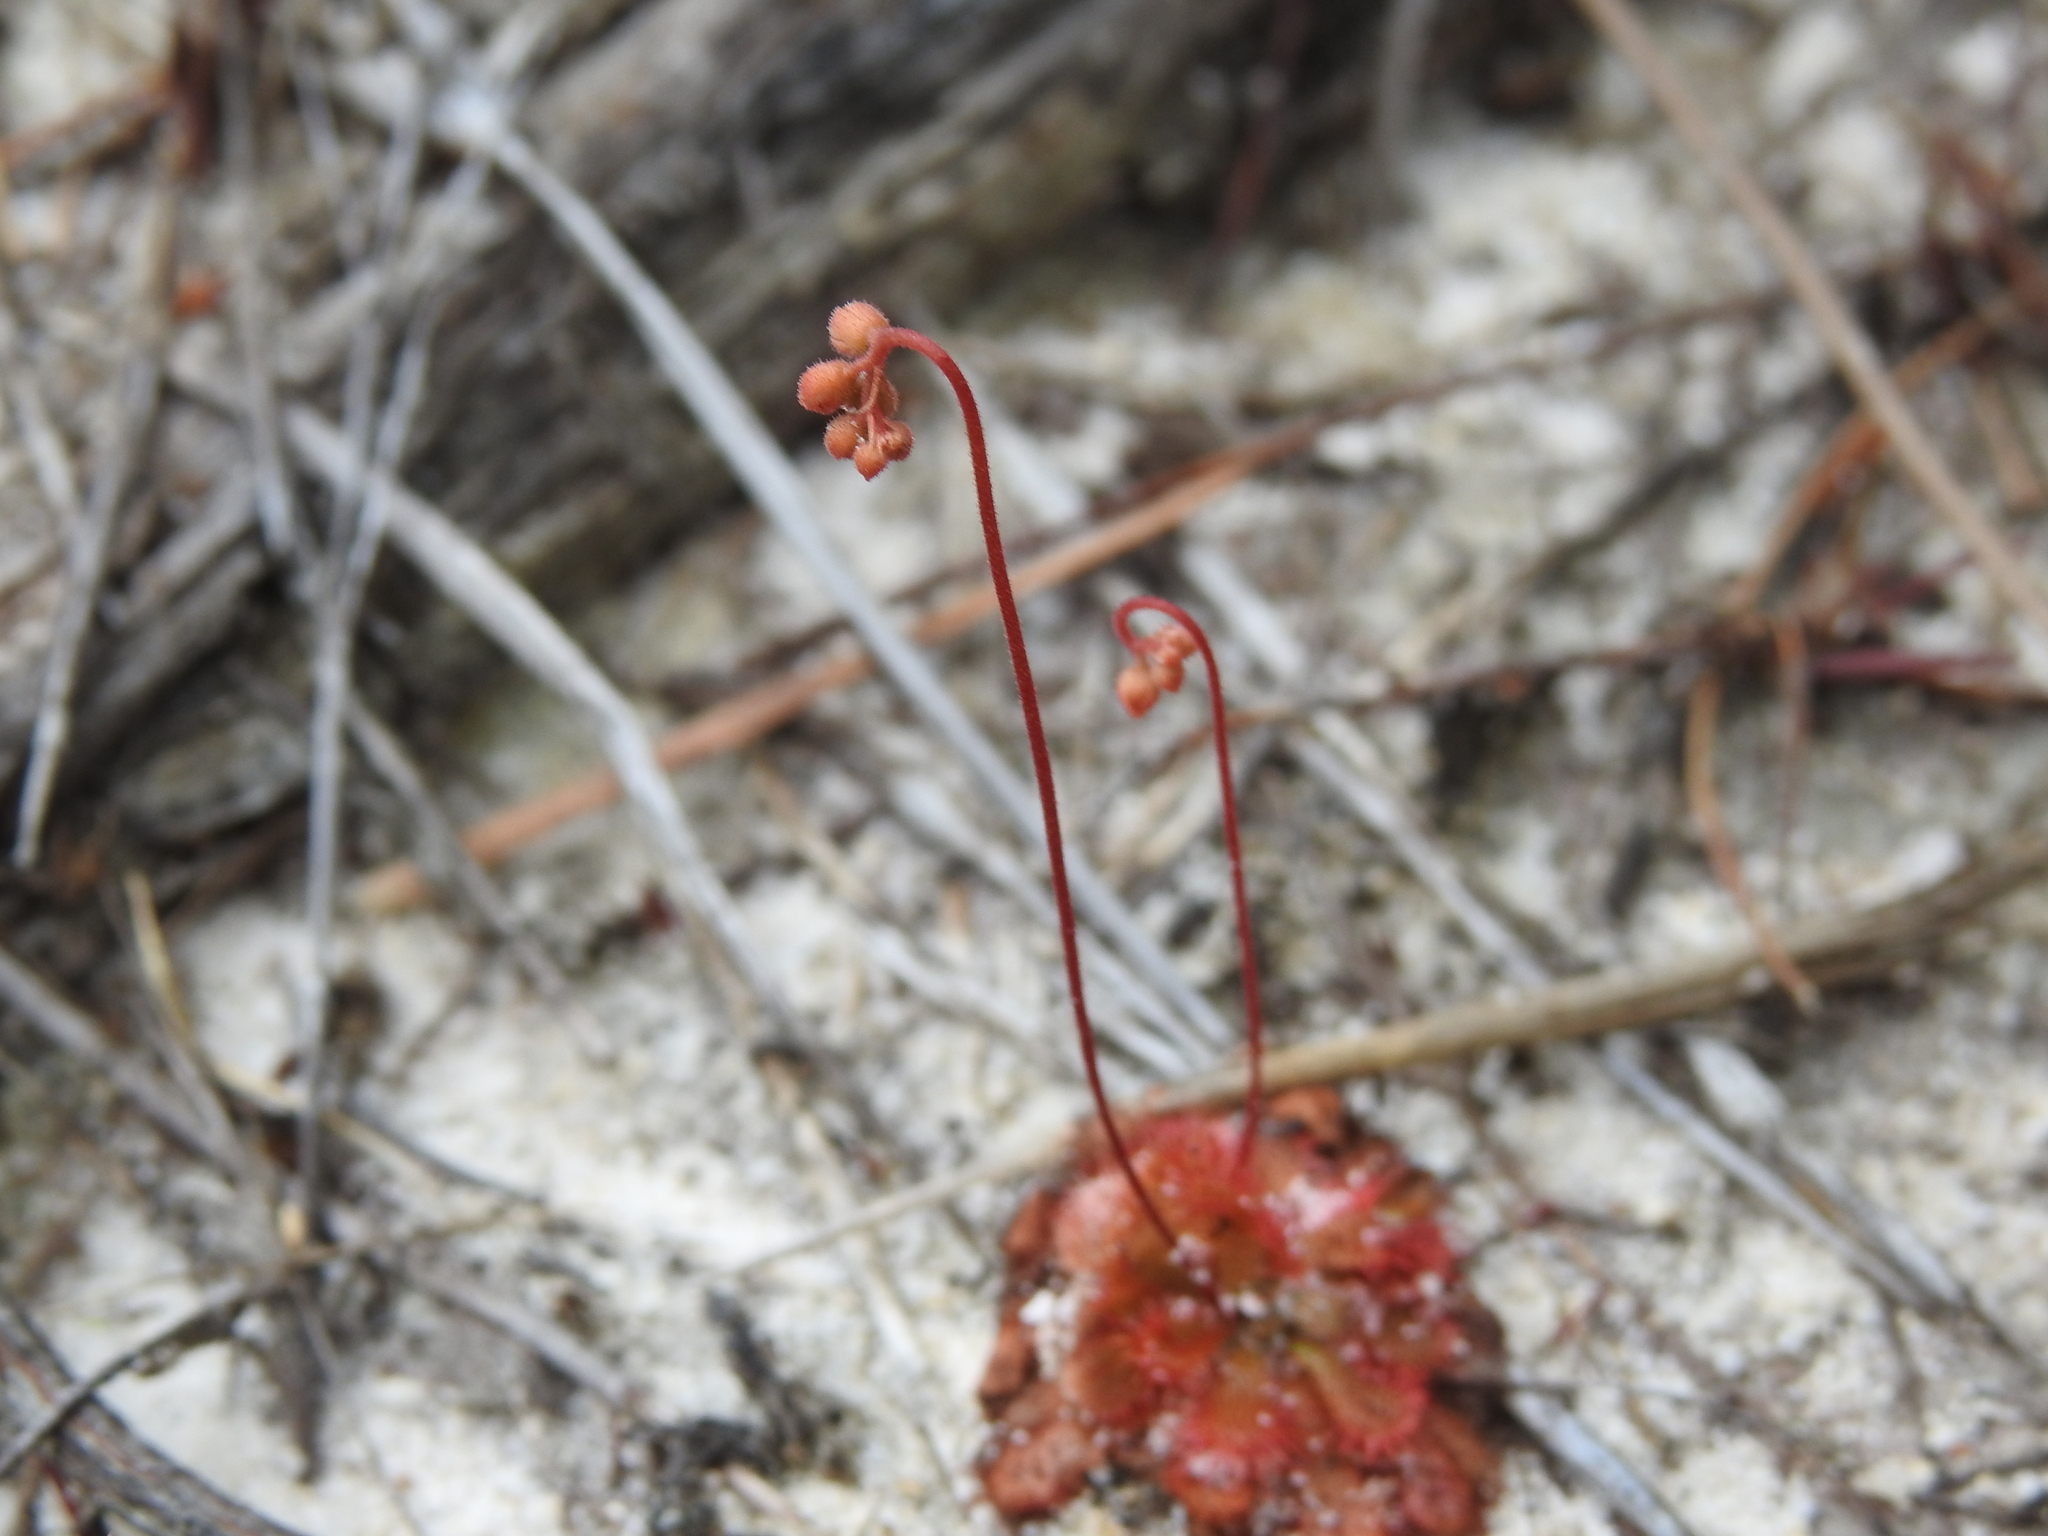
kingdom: Plantae
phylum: Tracheophyta
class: Magnoliopsida
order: Caryophyllales
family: Droseraceae
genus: Drosera
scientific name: Drosera spatulata
